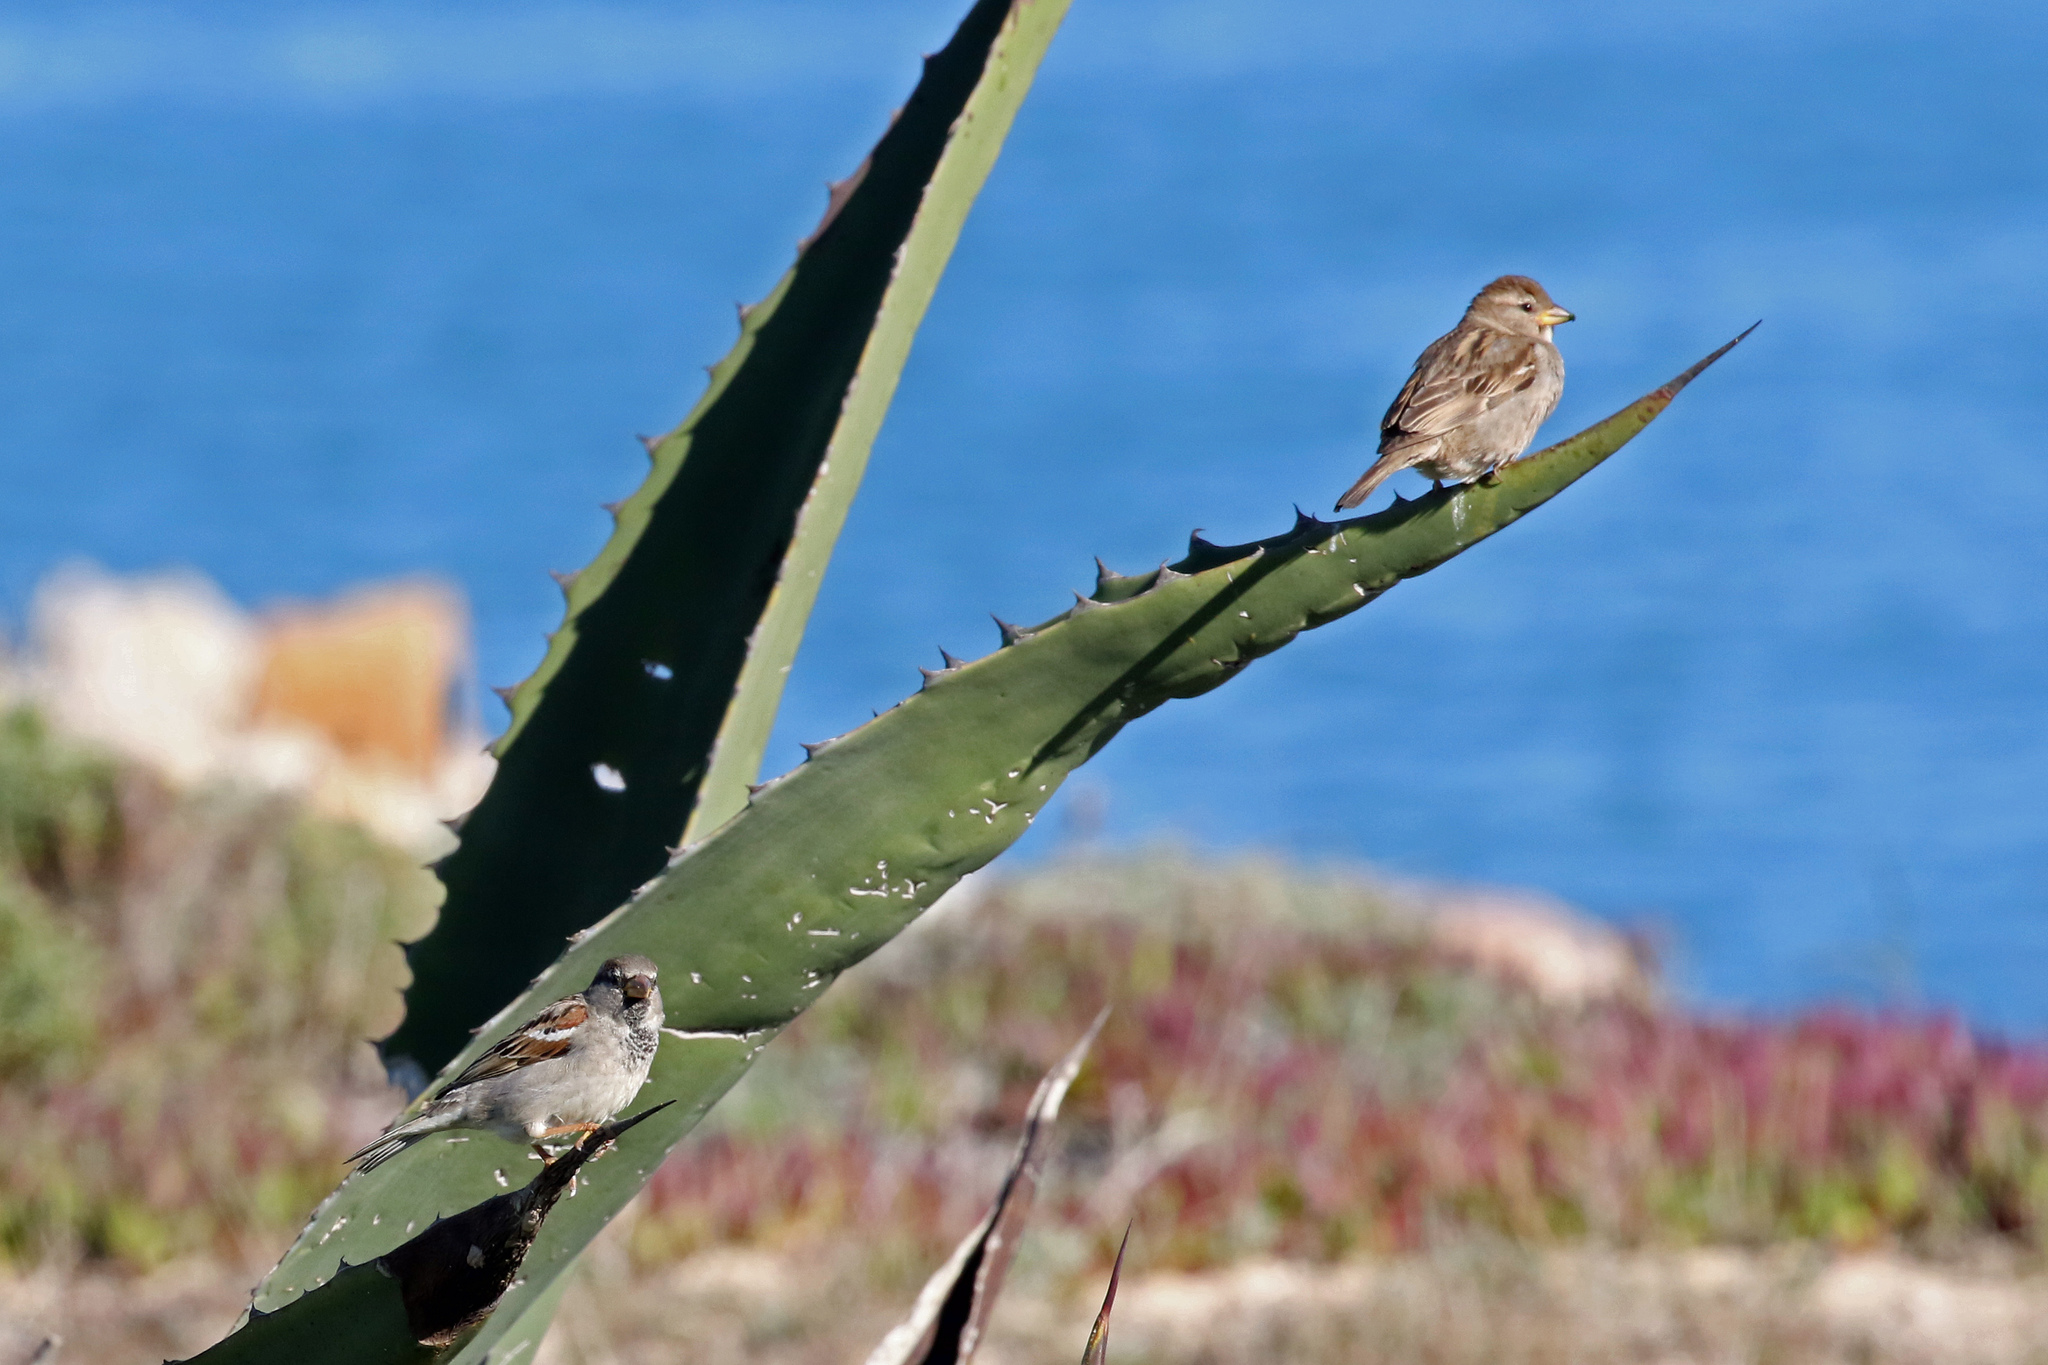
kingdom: Animalia
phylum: Chordata
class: Aves
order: Passeriformes
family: Passeridae
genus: Passer
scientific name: Passer domesticus
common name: House sparrow
